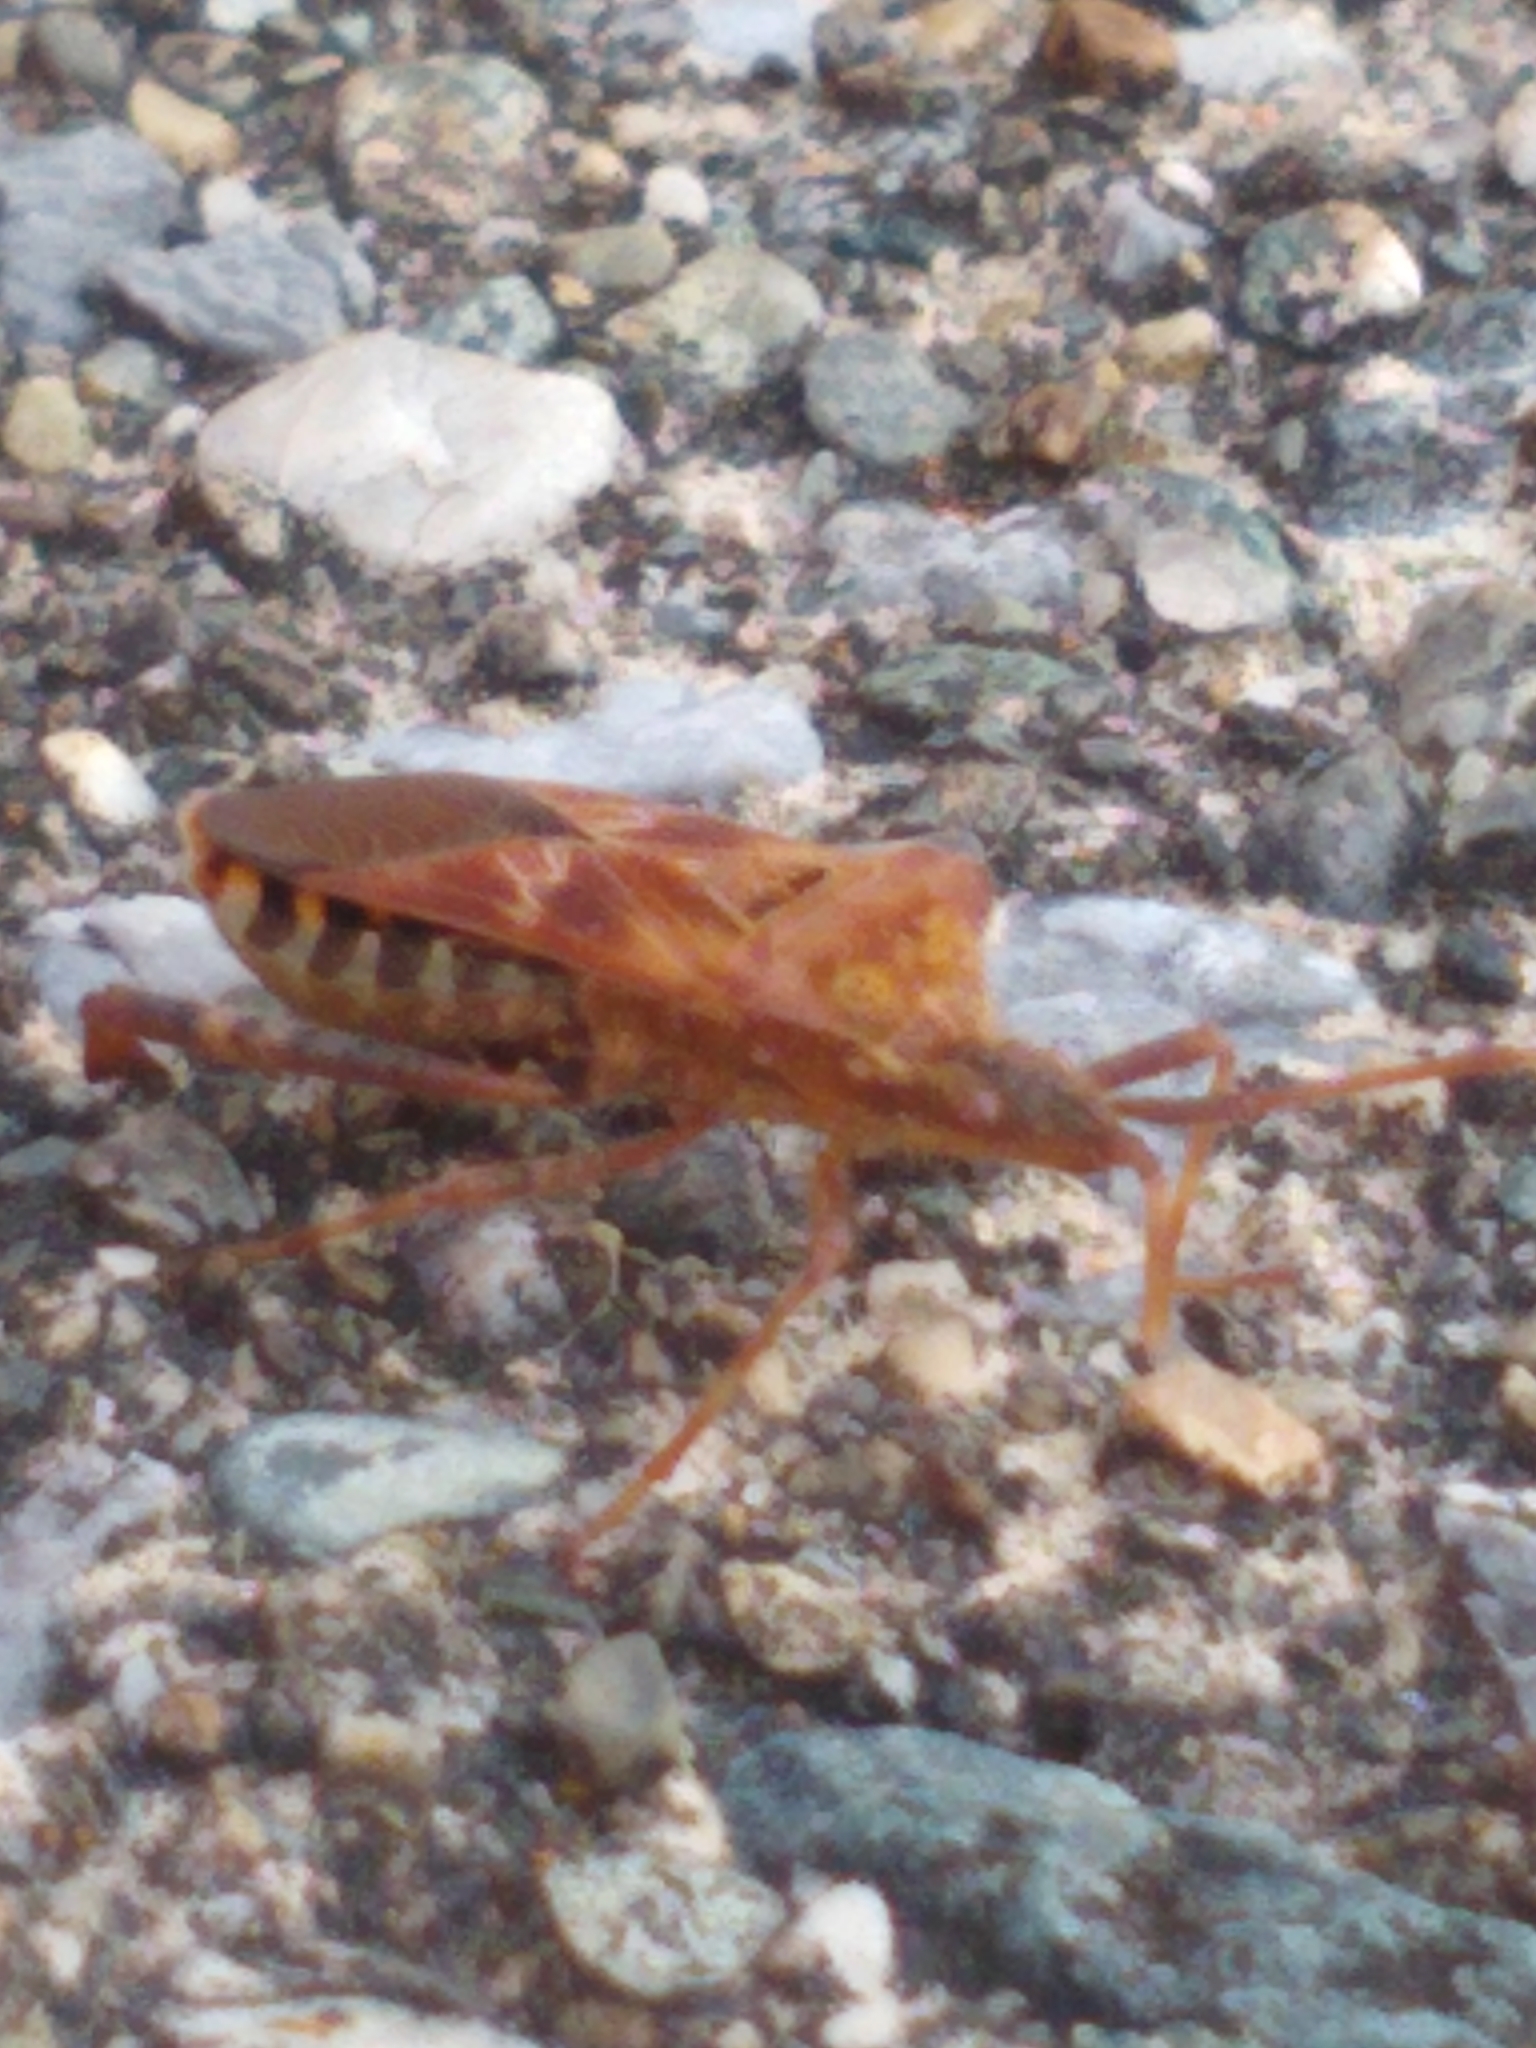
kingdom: Animalia
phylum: Arthropoda
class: Insecta
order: Hemiptera
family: Coreidae
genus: Leptoglossus
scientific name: Leptoglossus occidentalis
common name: Western conifer-seed bug
